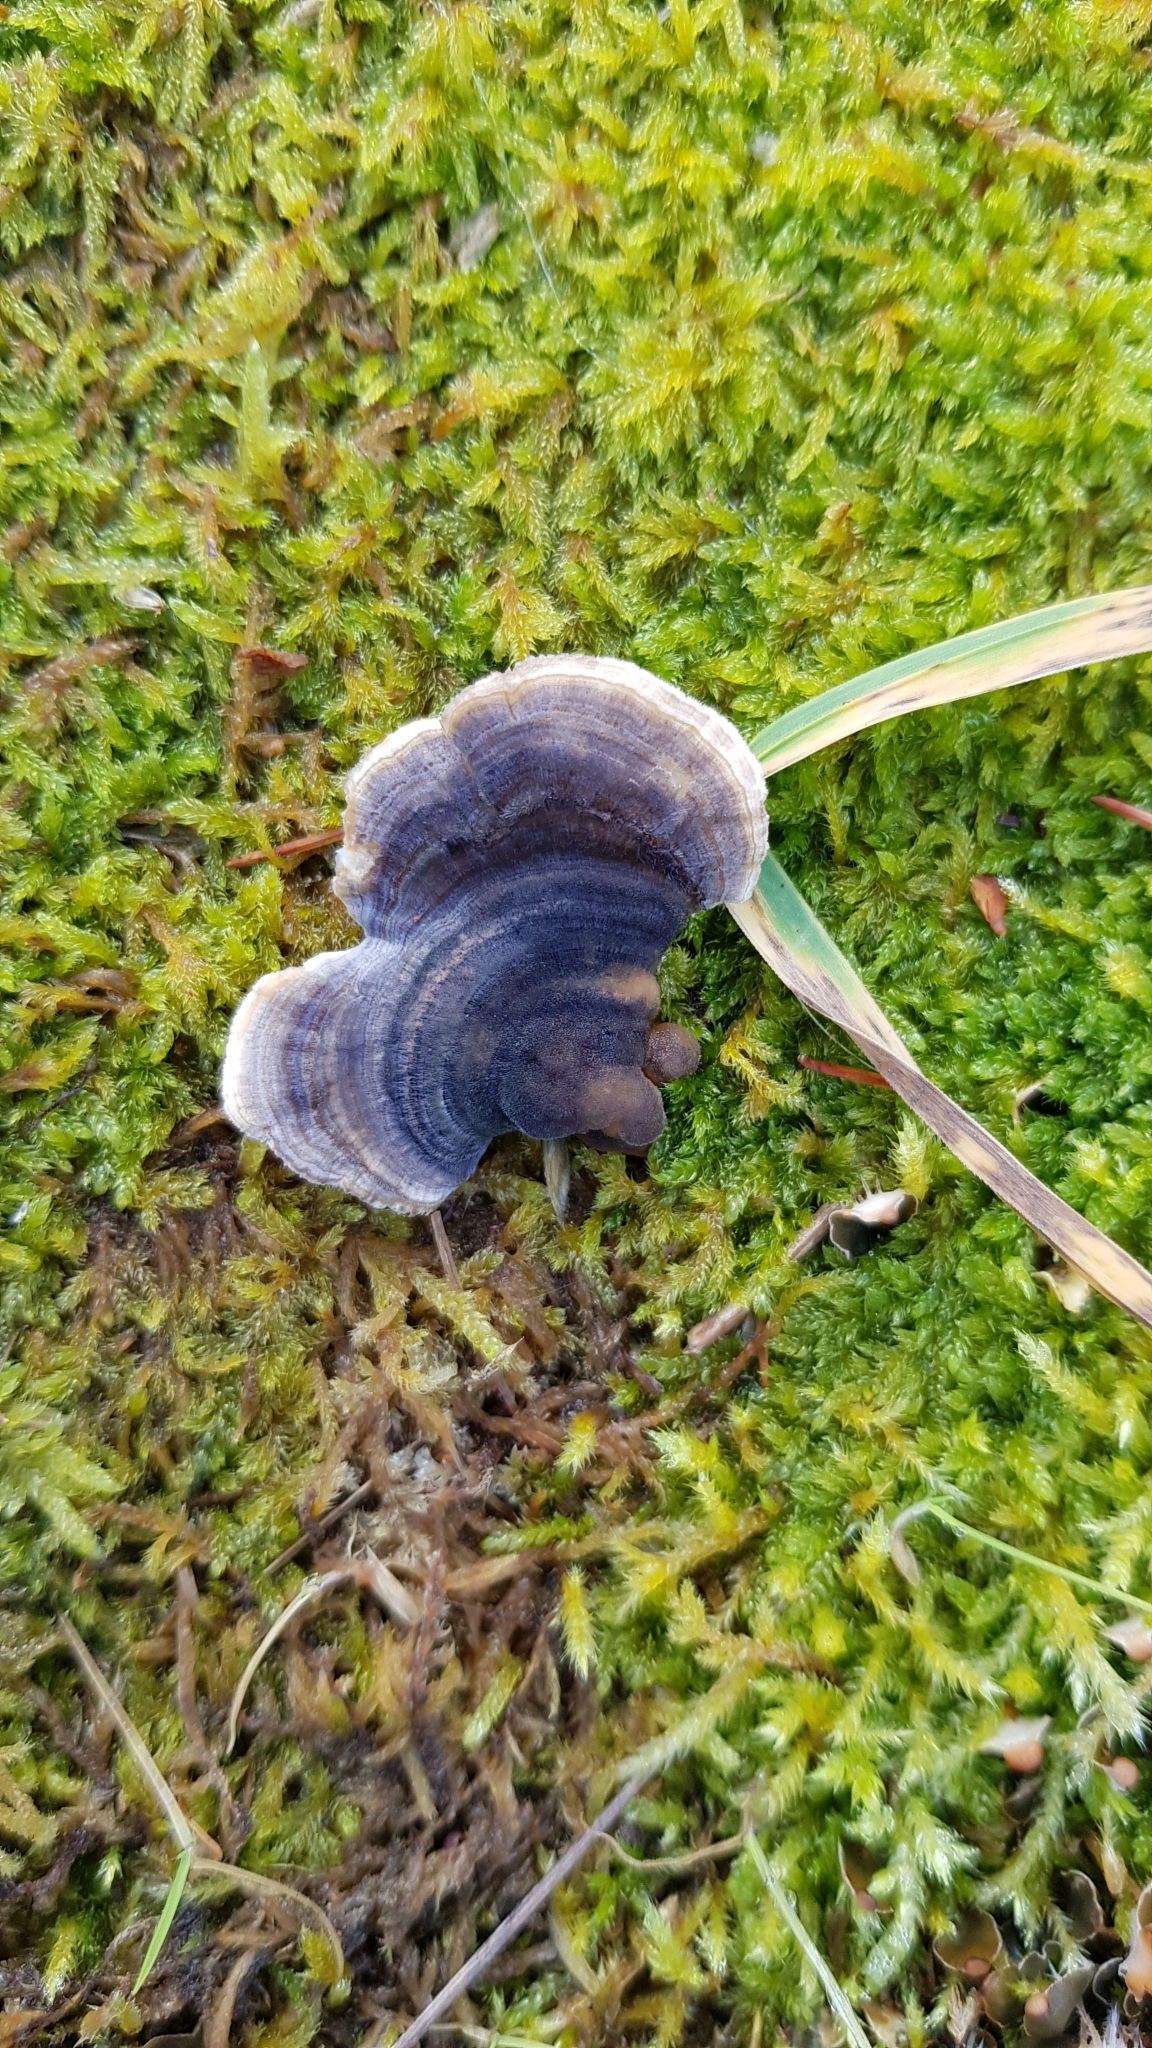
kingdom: Fungi
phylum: Basidiomycota
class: Agaricomycetes
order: Polyporales
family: Polyporaceae
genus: Trametes
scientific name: Trametes versicolor
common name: Turkeytail
